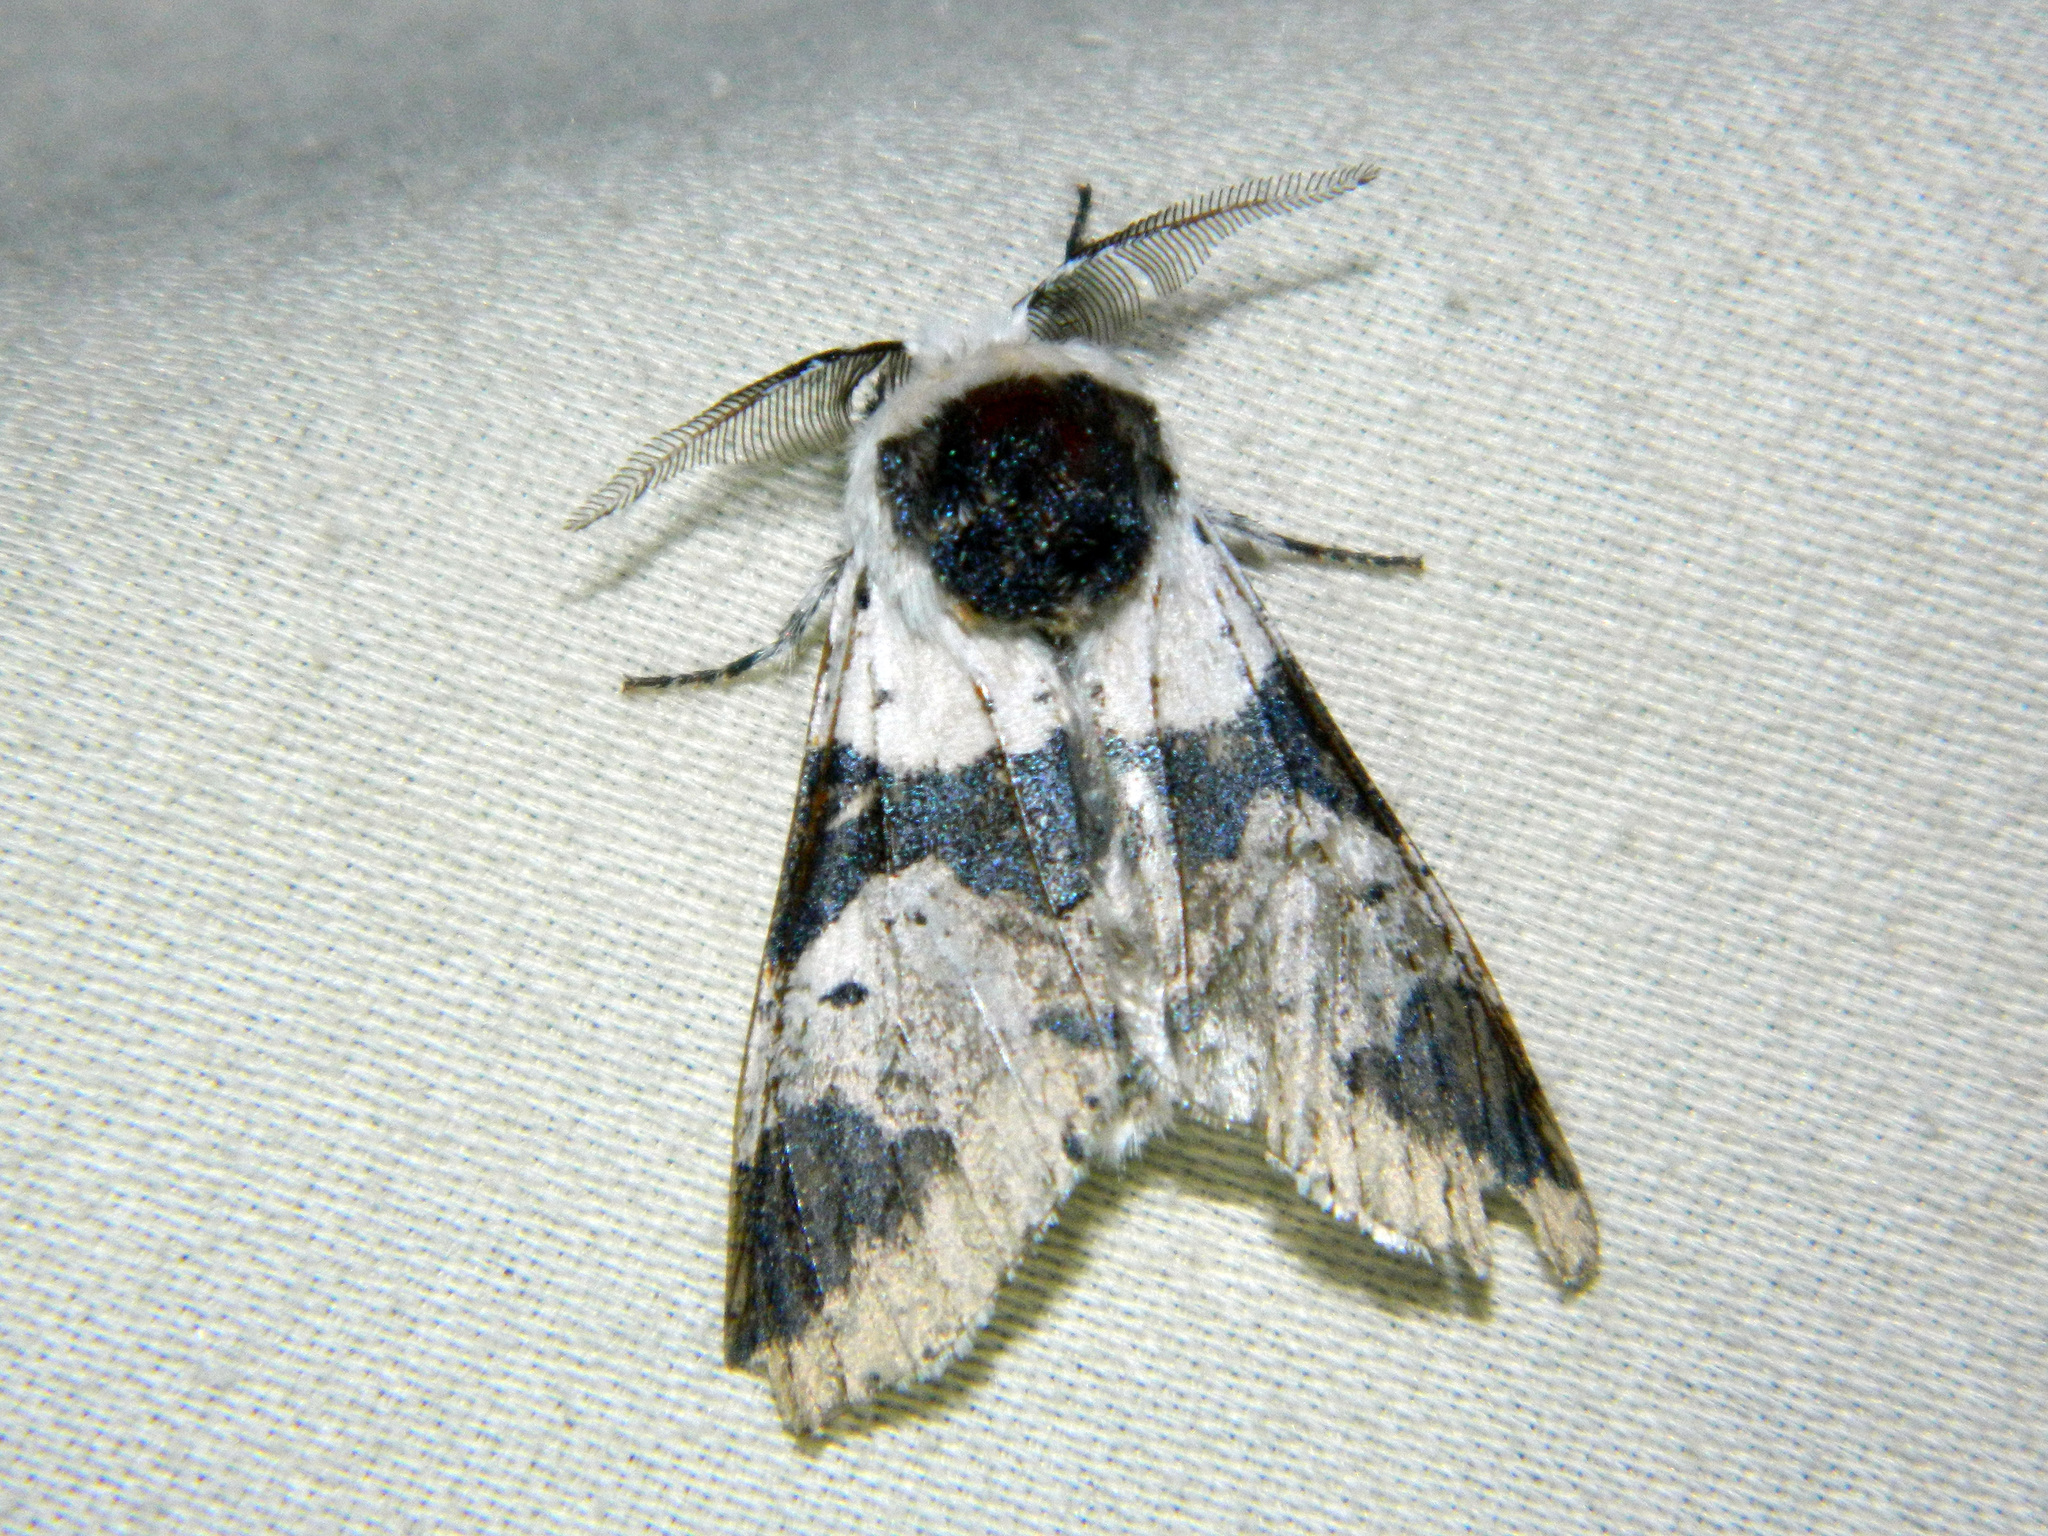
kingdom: Animalia
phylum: Arthropoda
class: Insecta
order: Lepidoptera
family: Notodontidae
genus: Furcula
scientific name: Furcula modesta
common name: Modest furcula moth
